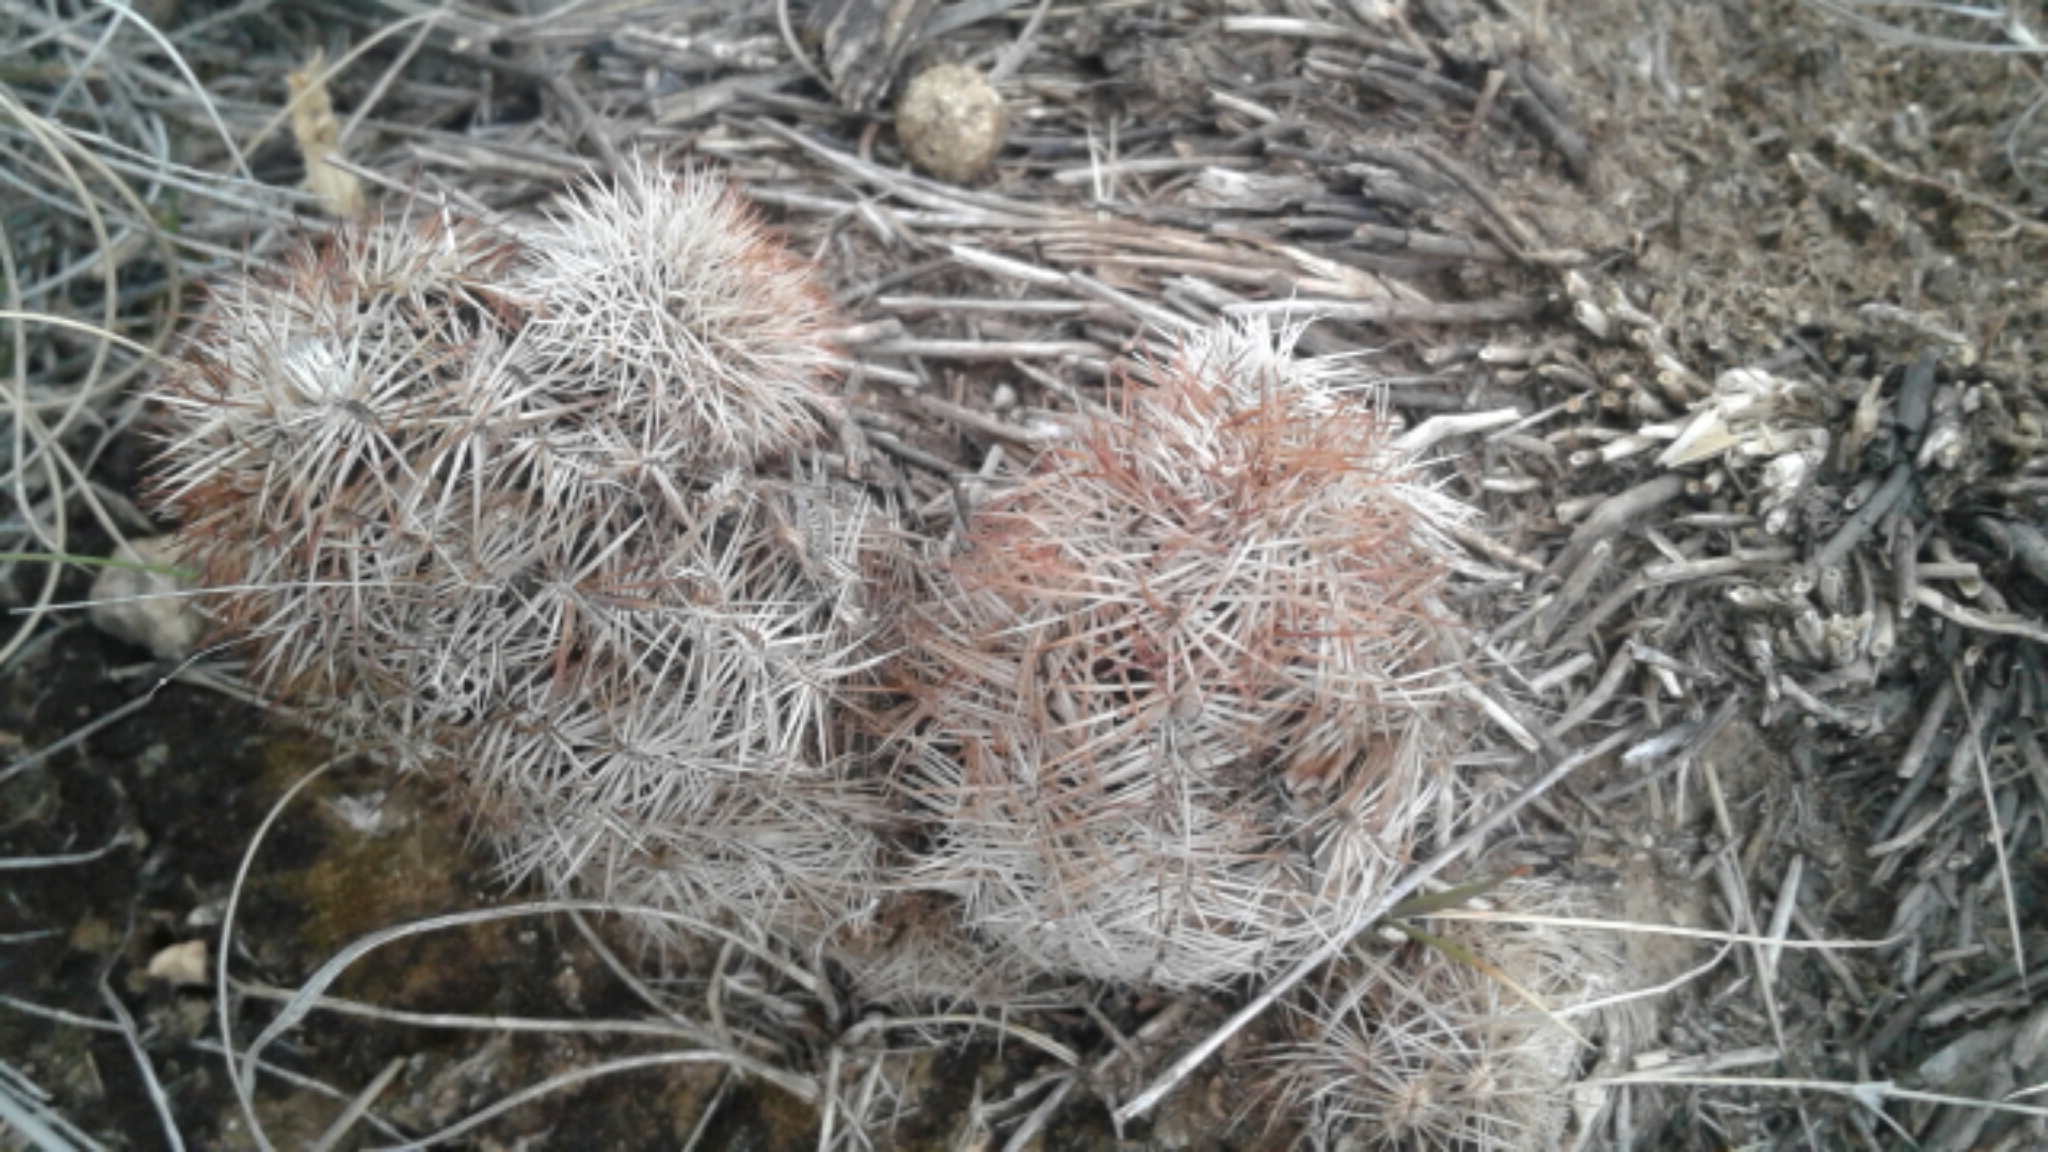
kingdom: Plantae
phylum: Tracheophyta
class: Magnoliopsida
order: Caryophyllales
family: Cactaceae
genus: Echinocereus
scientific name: Echinocereus reichenbachii
